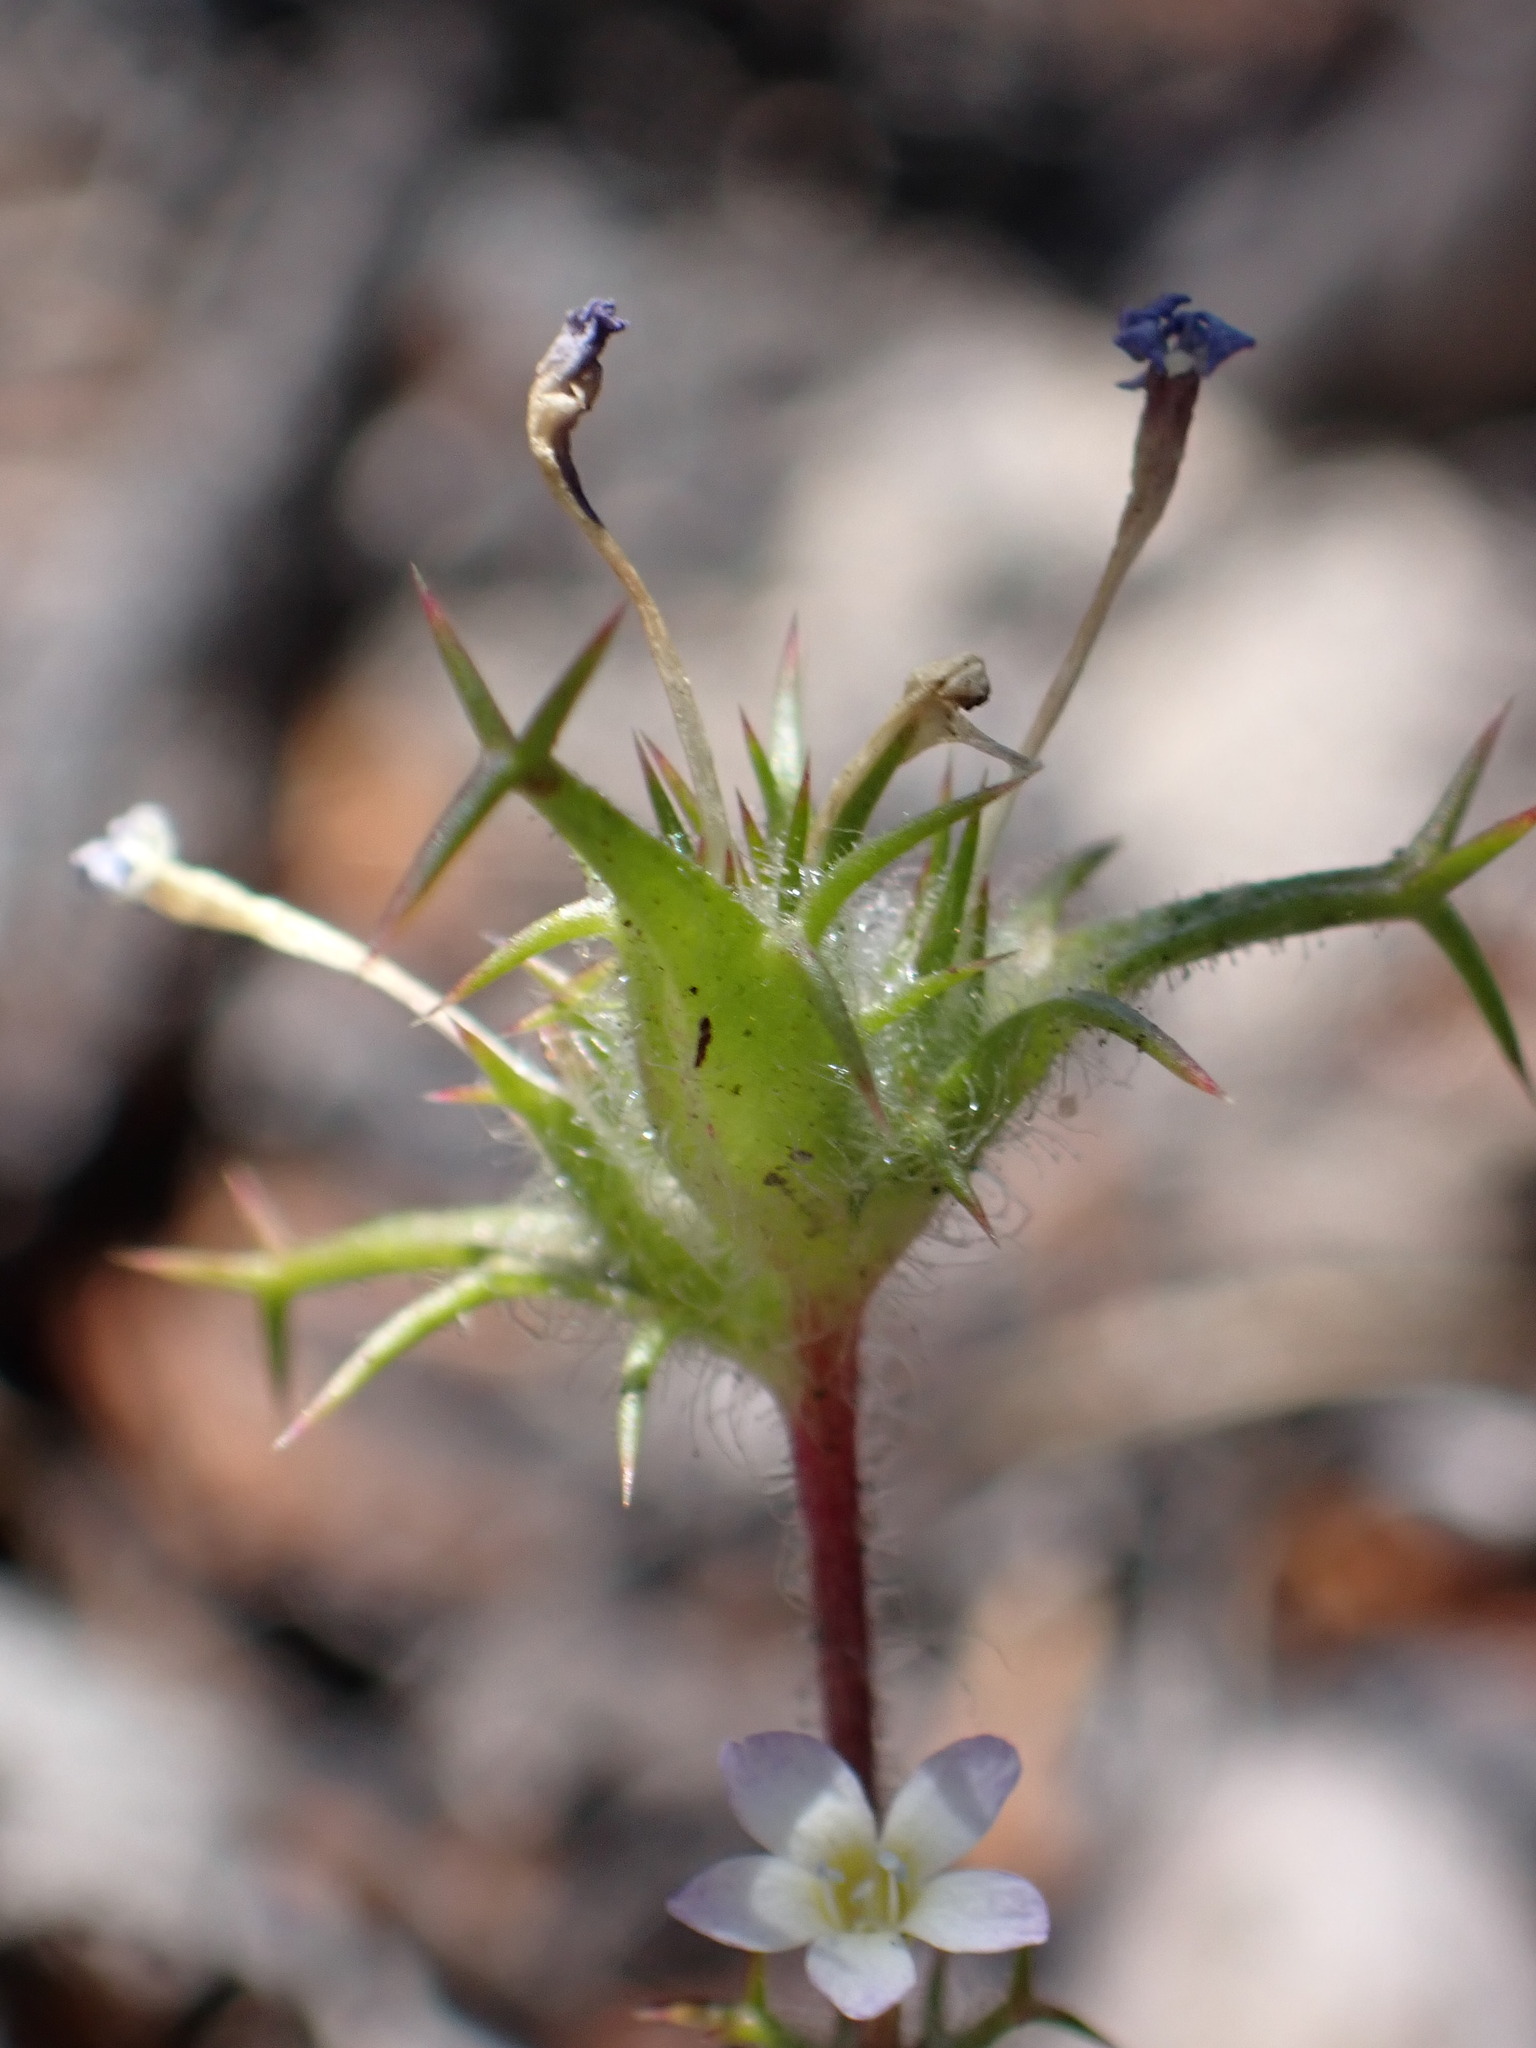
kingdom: Plantae
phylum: Tracheophyta
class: Magnoliopsida
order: Ericales
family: Polemoniaceae
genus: Navarretia
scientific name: Navarretia hamata
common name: Hooked navarretia
